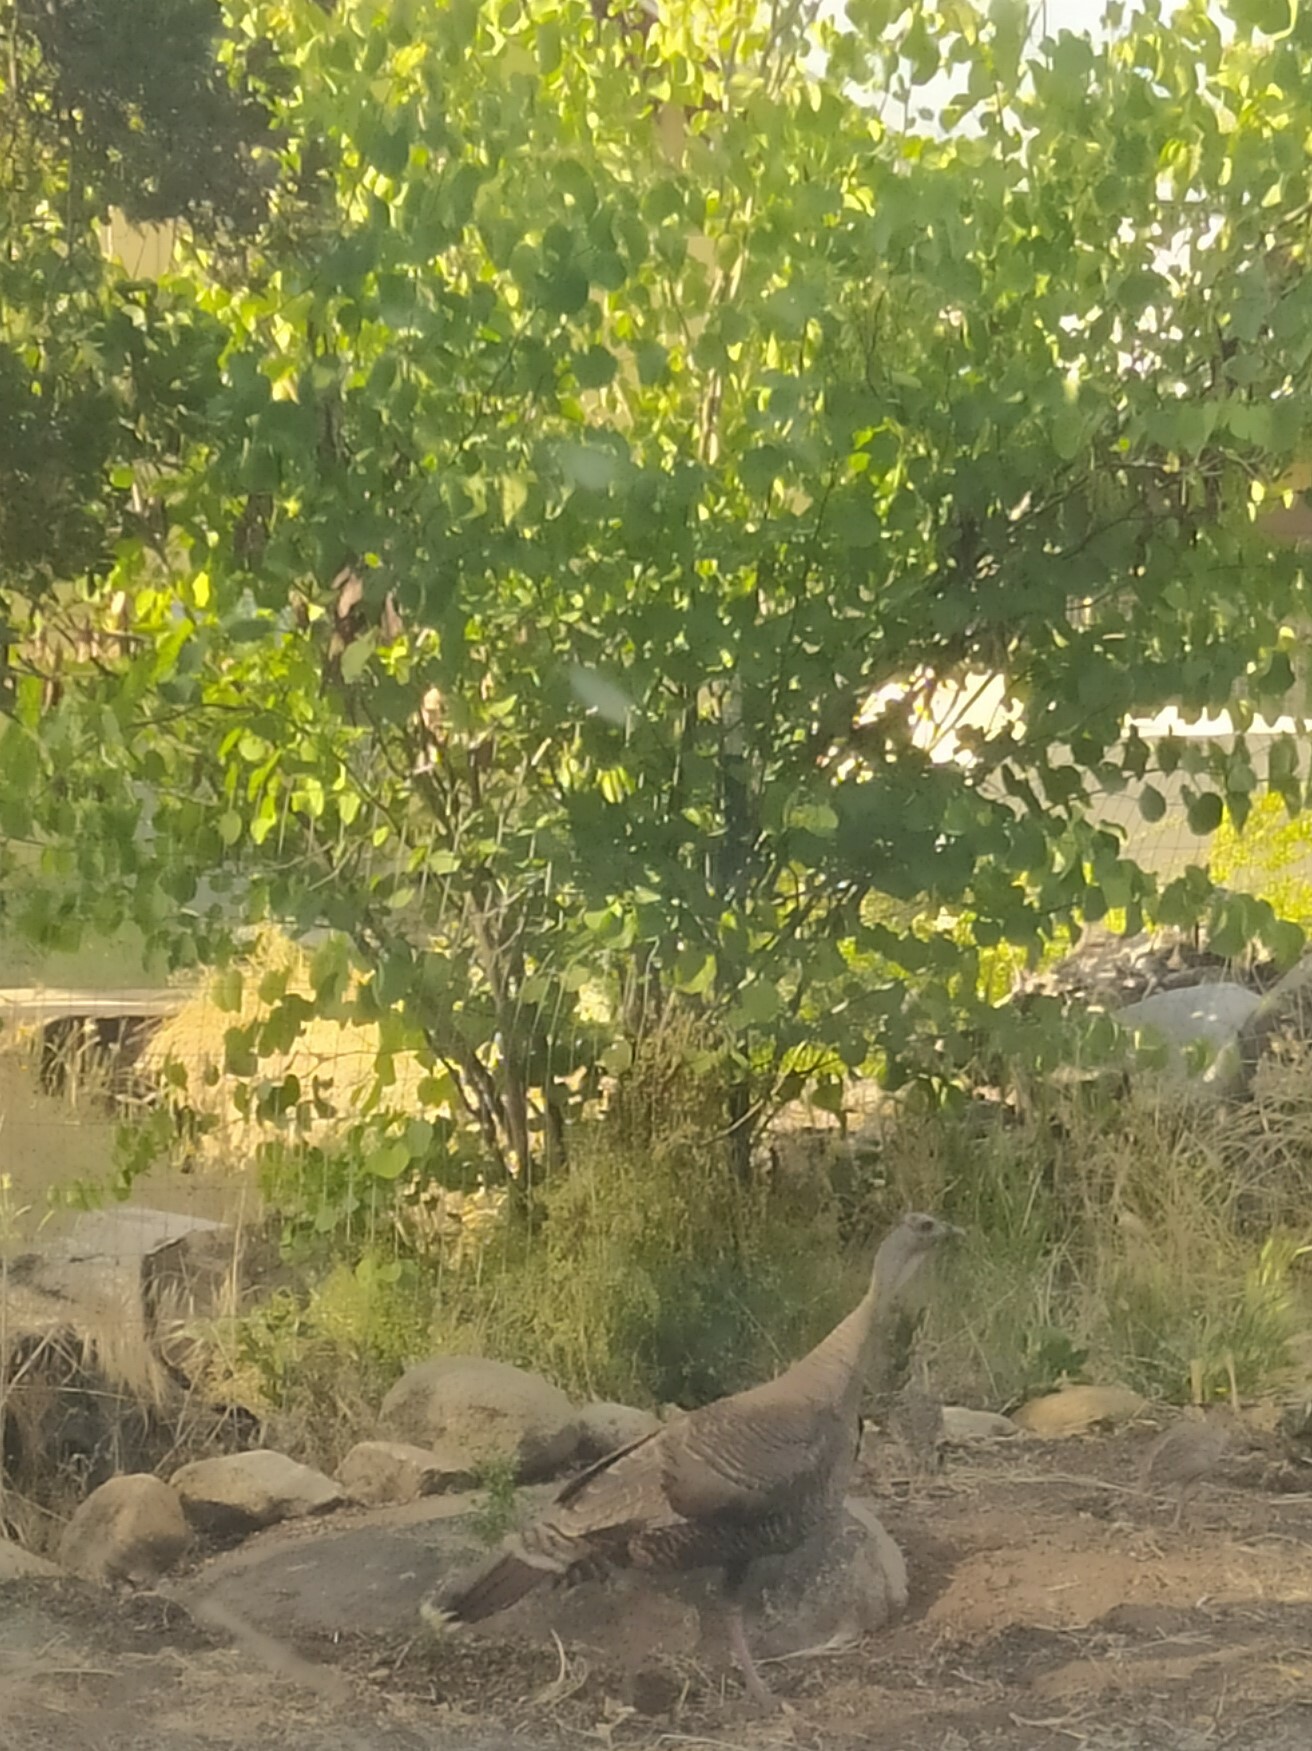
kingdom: Animalia
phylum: Chordata
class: Aves
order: Galliformes
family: Phasianidae
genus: Meleagris
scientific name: Meleagris gallopavo
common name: Wild turkey
